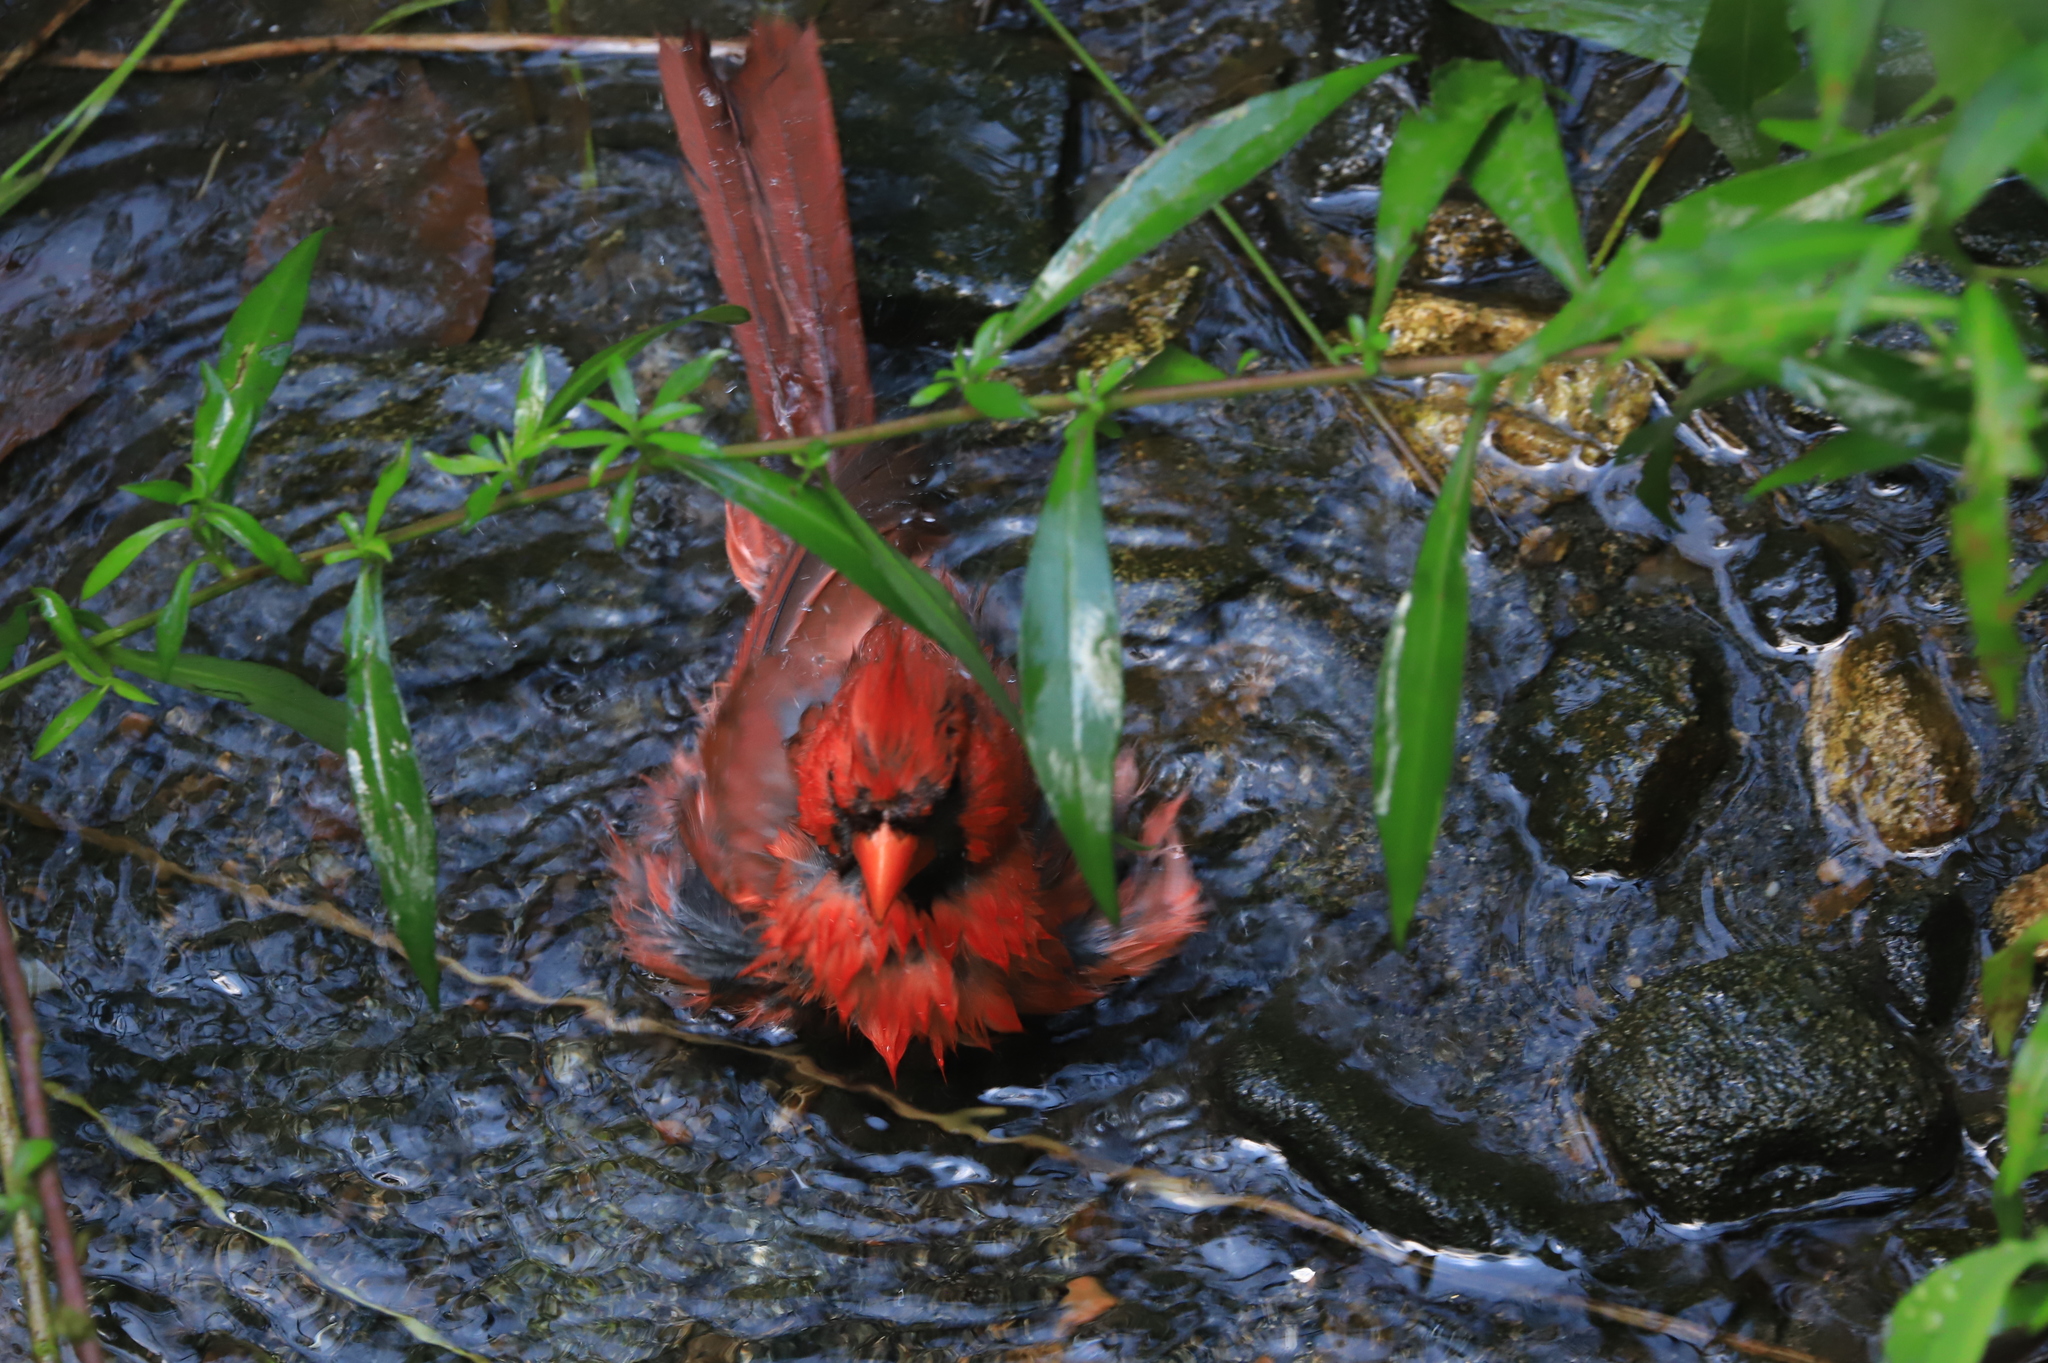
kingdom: Animalia
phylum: Chordata
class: Aves
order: Passeriformes
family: Cardinalidae
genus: Cardinalis
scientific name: Cardinalis cardinalis
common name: Northern cardinal
